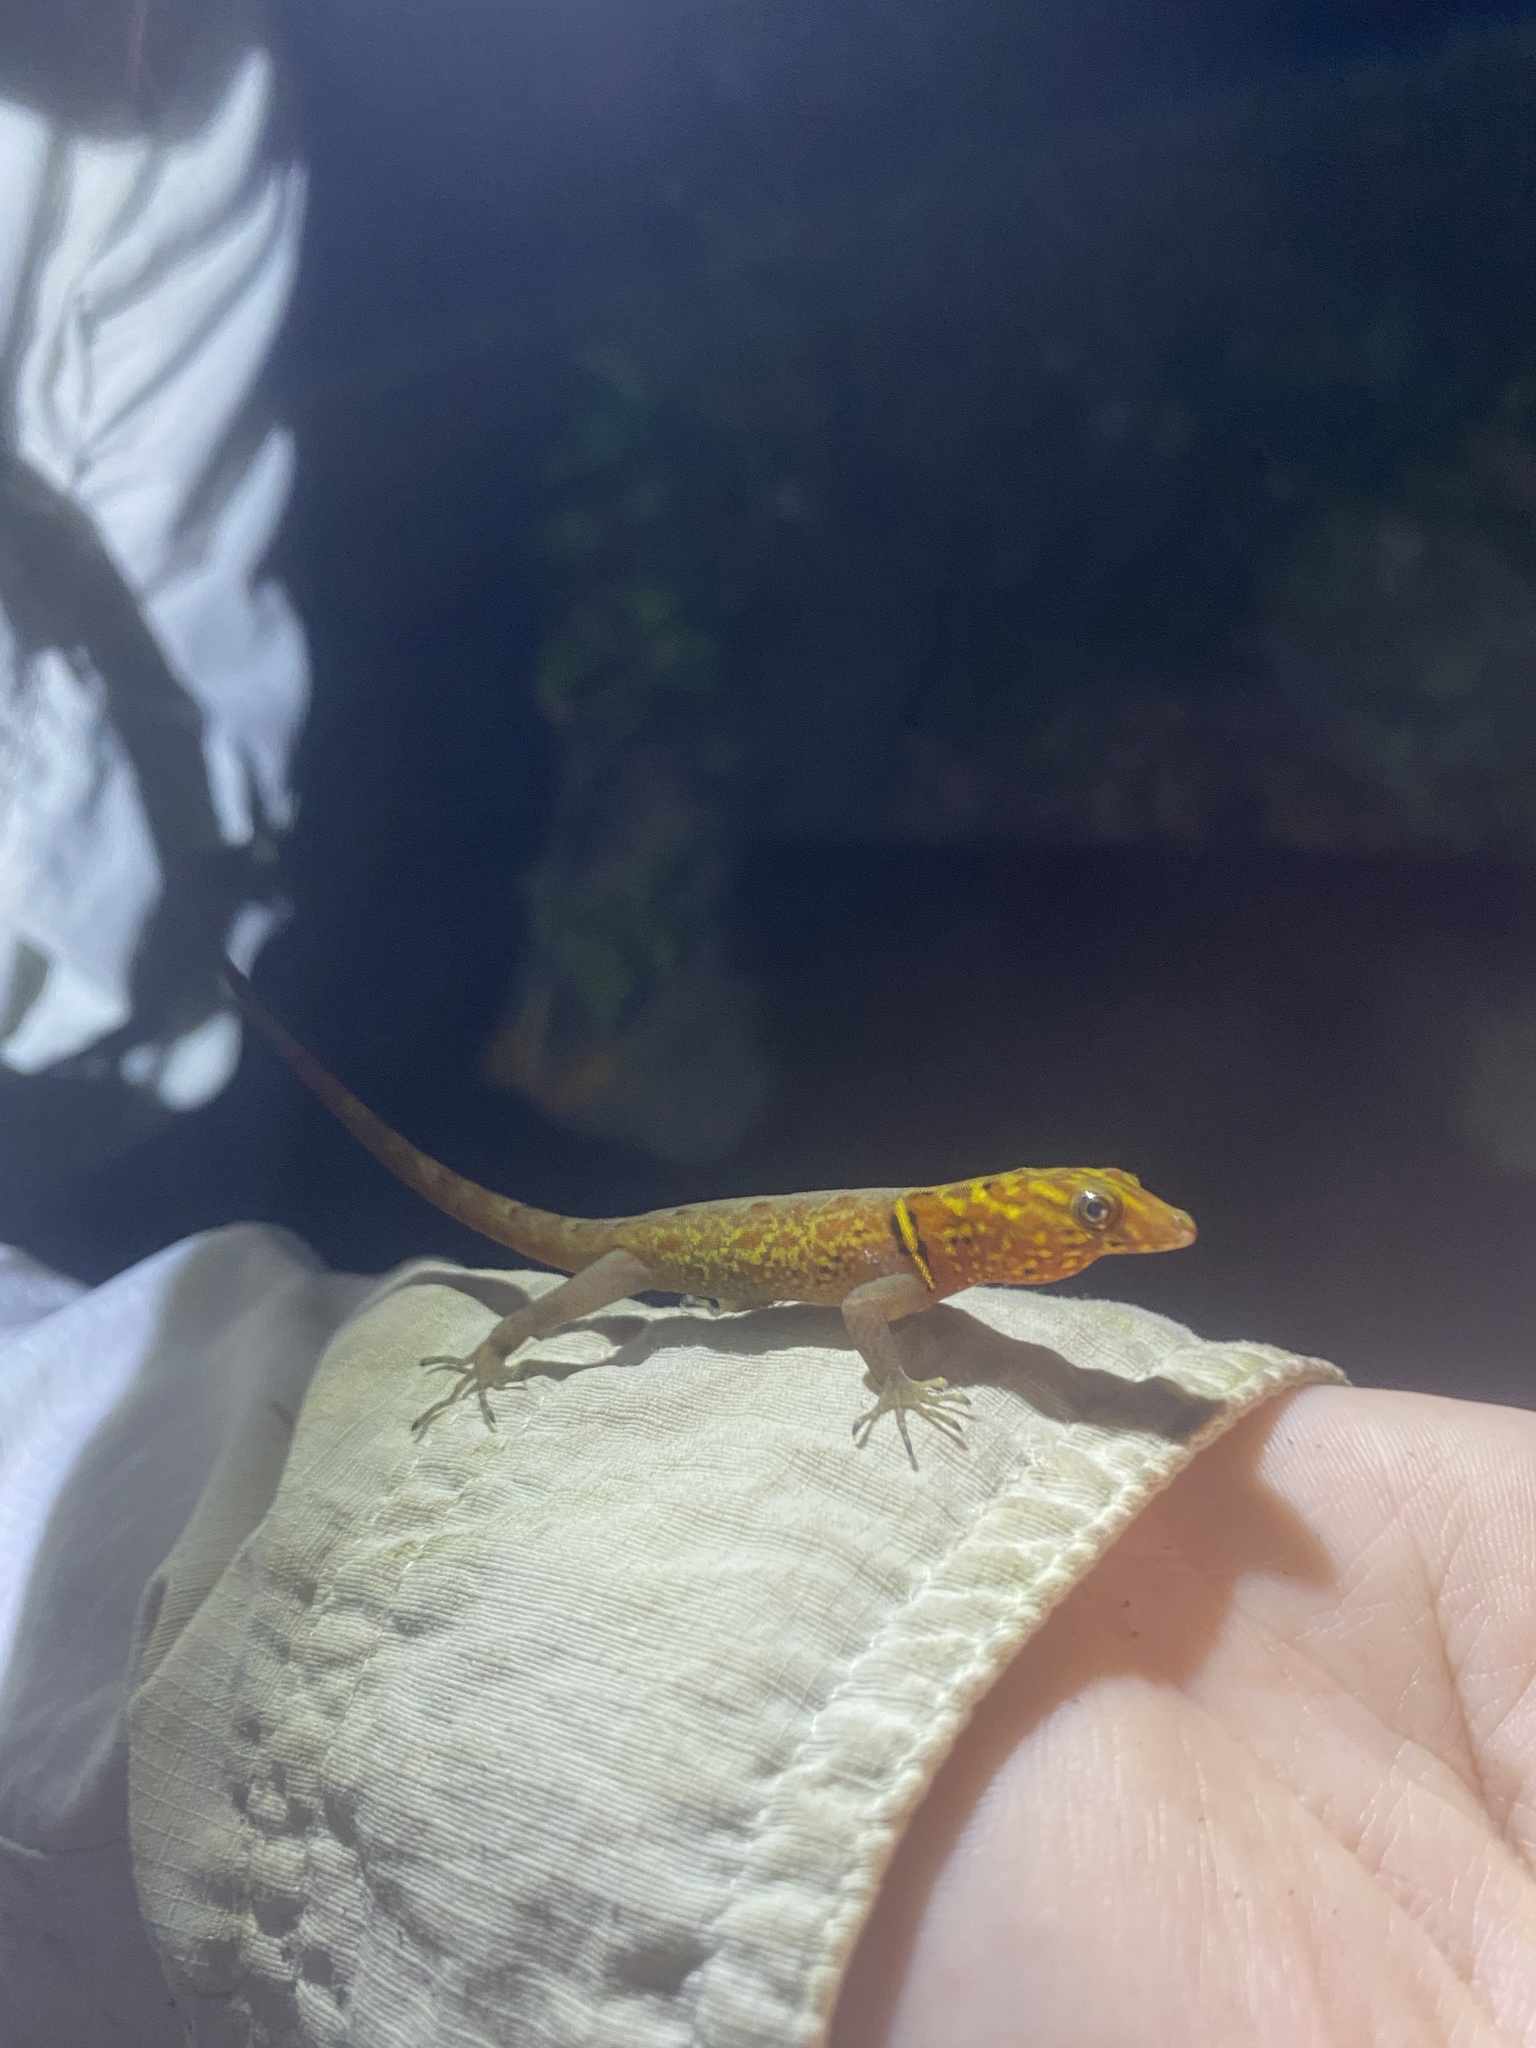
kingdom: Animalia
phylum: Chordata
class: Squamata
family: Sphaerodactylidae
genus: Gonatodes
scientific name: Gonatodes ceciliae
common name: Brilliant south american gecko
